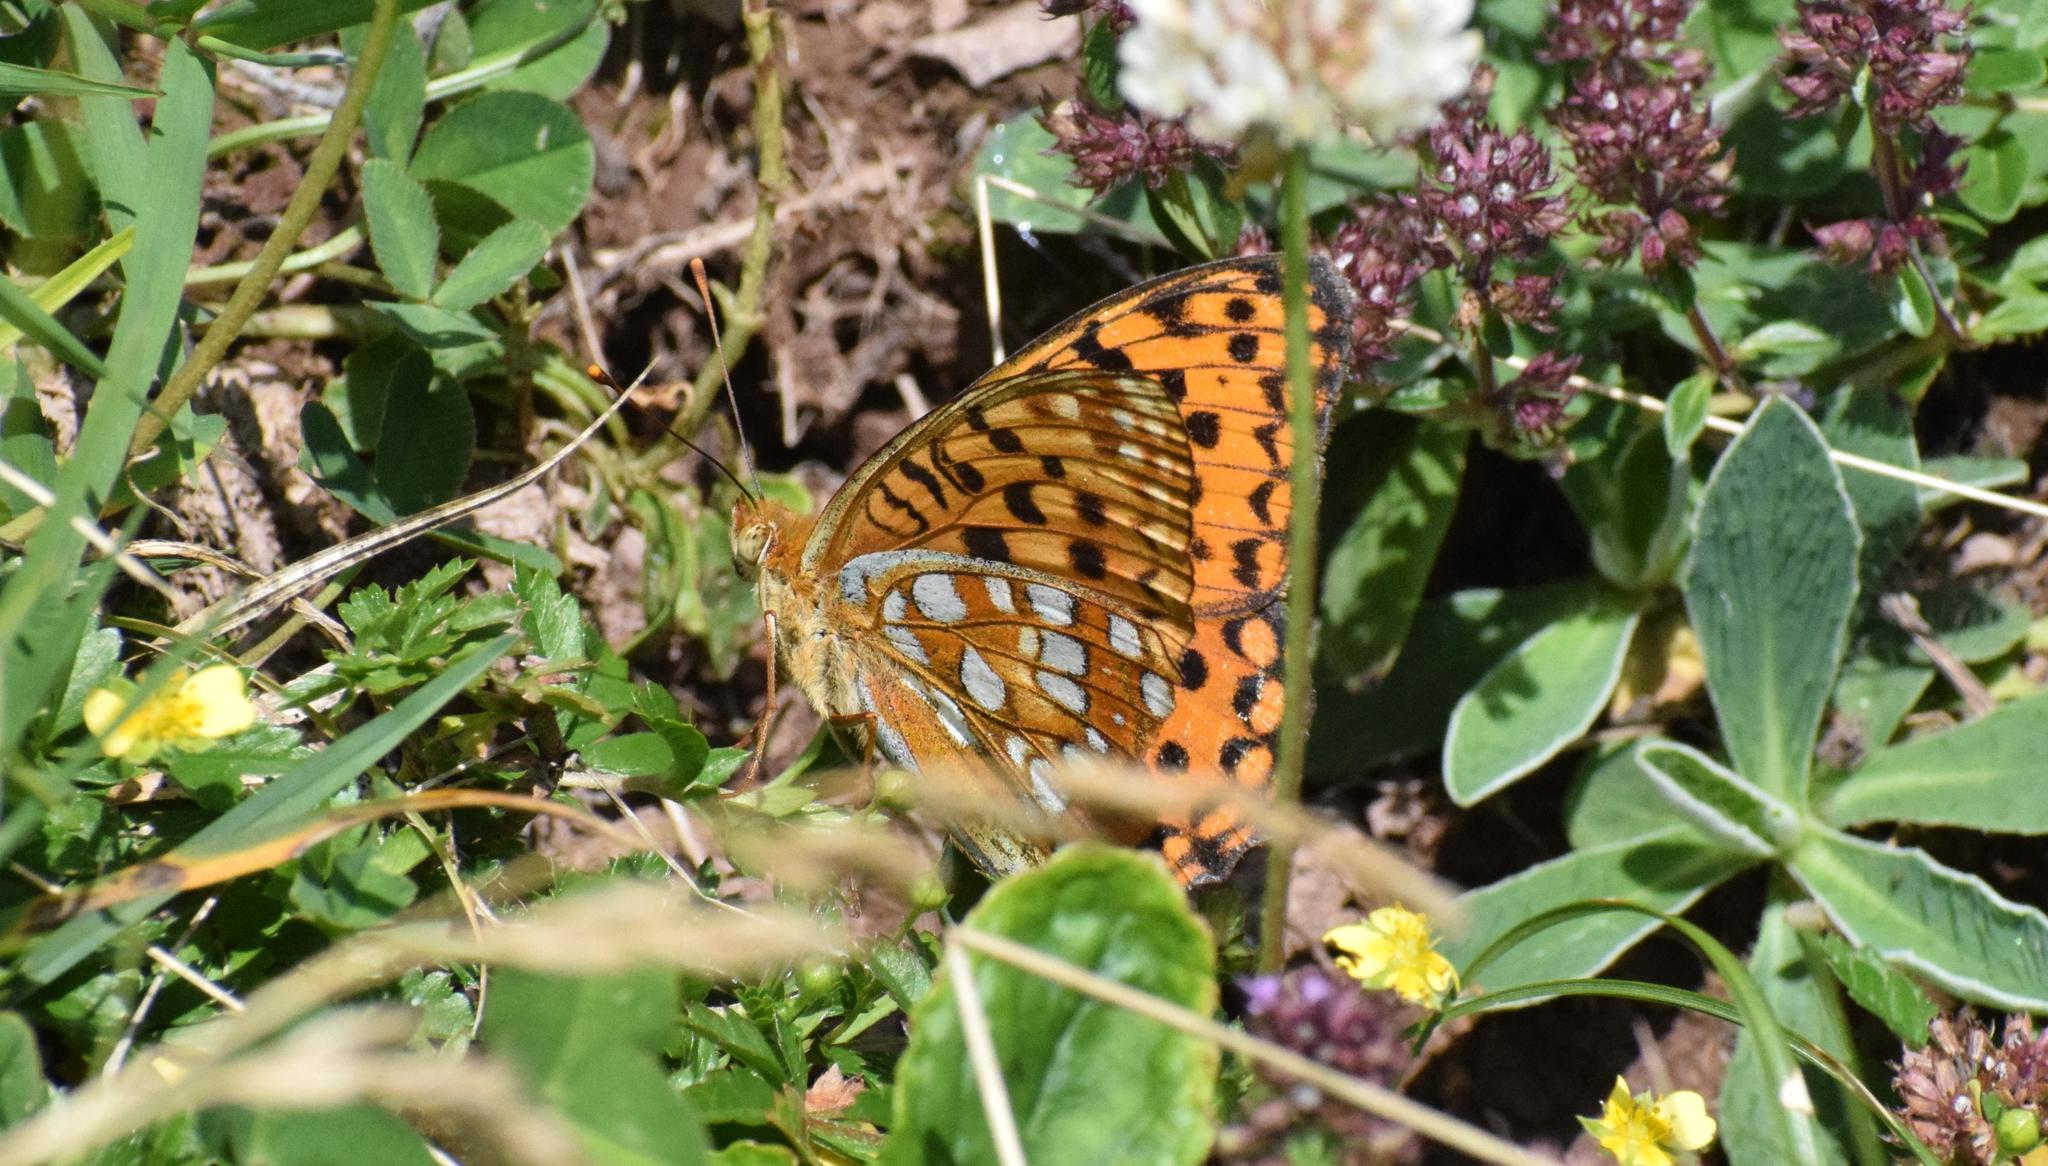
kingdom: Animalia
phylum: Arthropoda
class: Insecta
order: Lepidoptera
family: Nymphalidae
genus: Fabriciana
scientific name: Fabriciana adippe
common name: High brown fritillary
